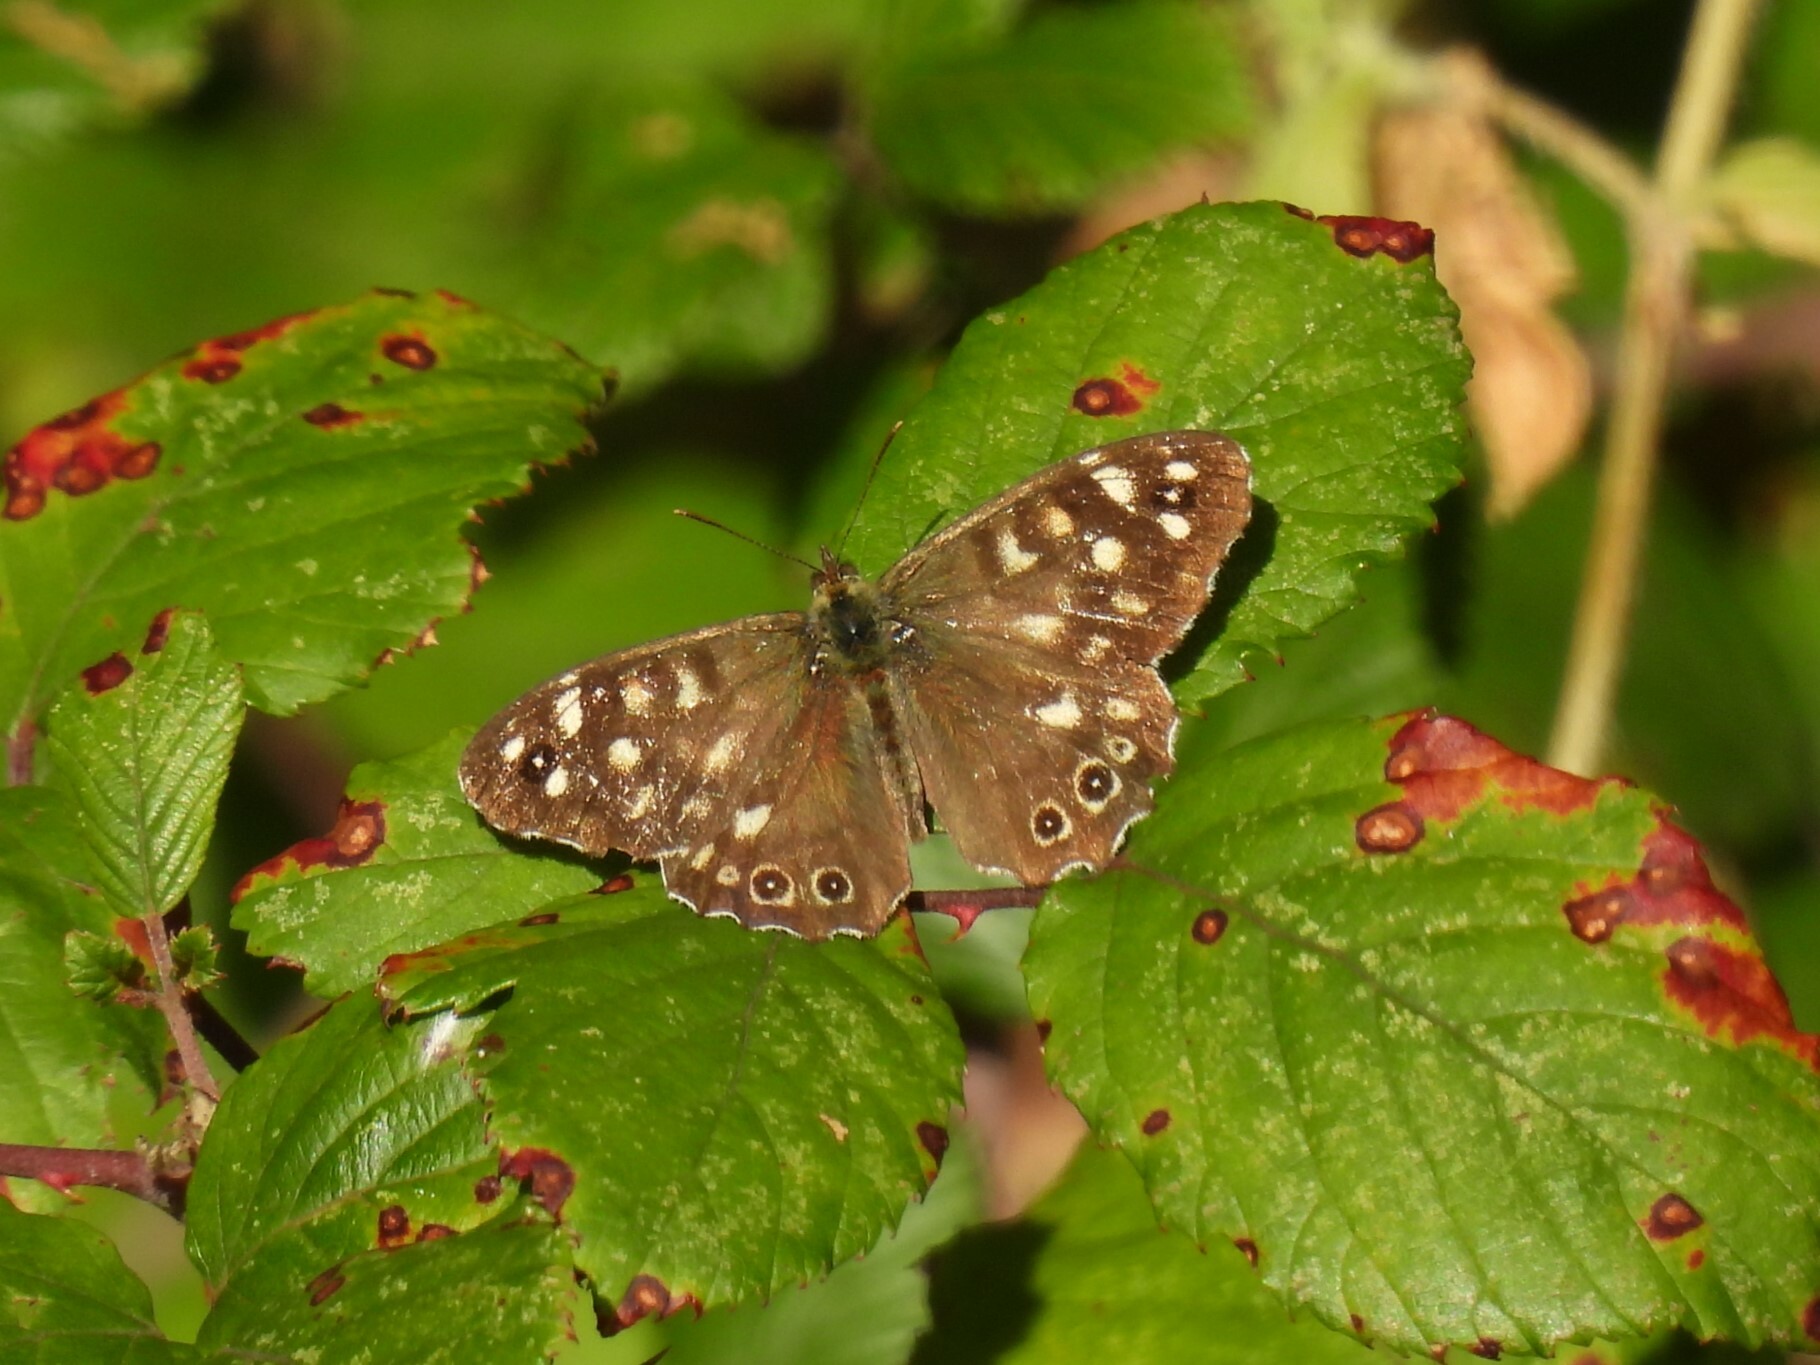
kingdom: Animalia
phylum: Arthropoda
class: Insecta
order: Lepidoptera
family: Nymphalidae
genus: Pararge
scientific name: Pararge aegeria
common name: Speckled wood
